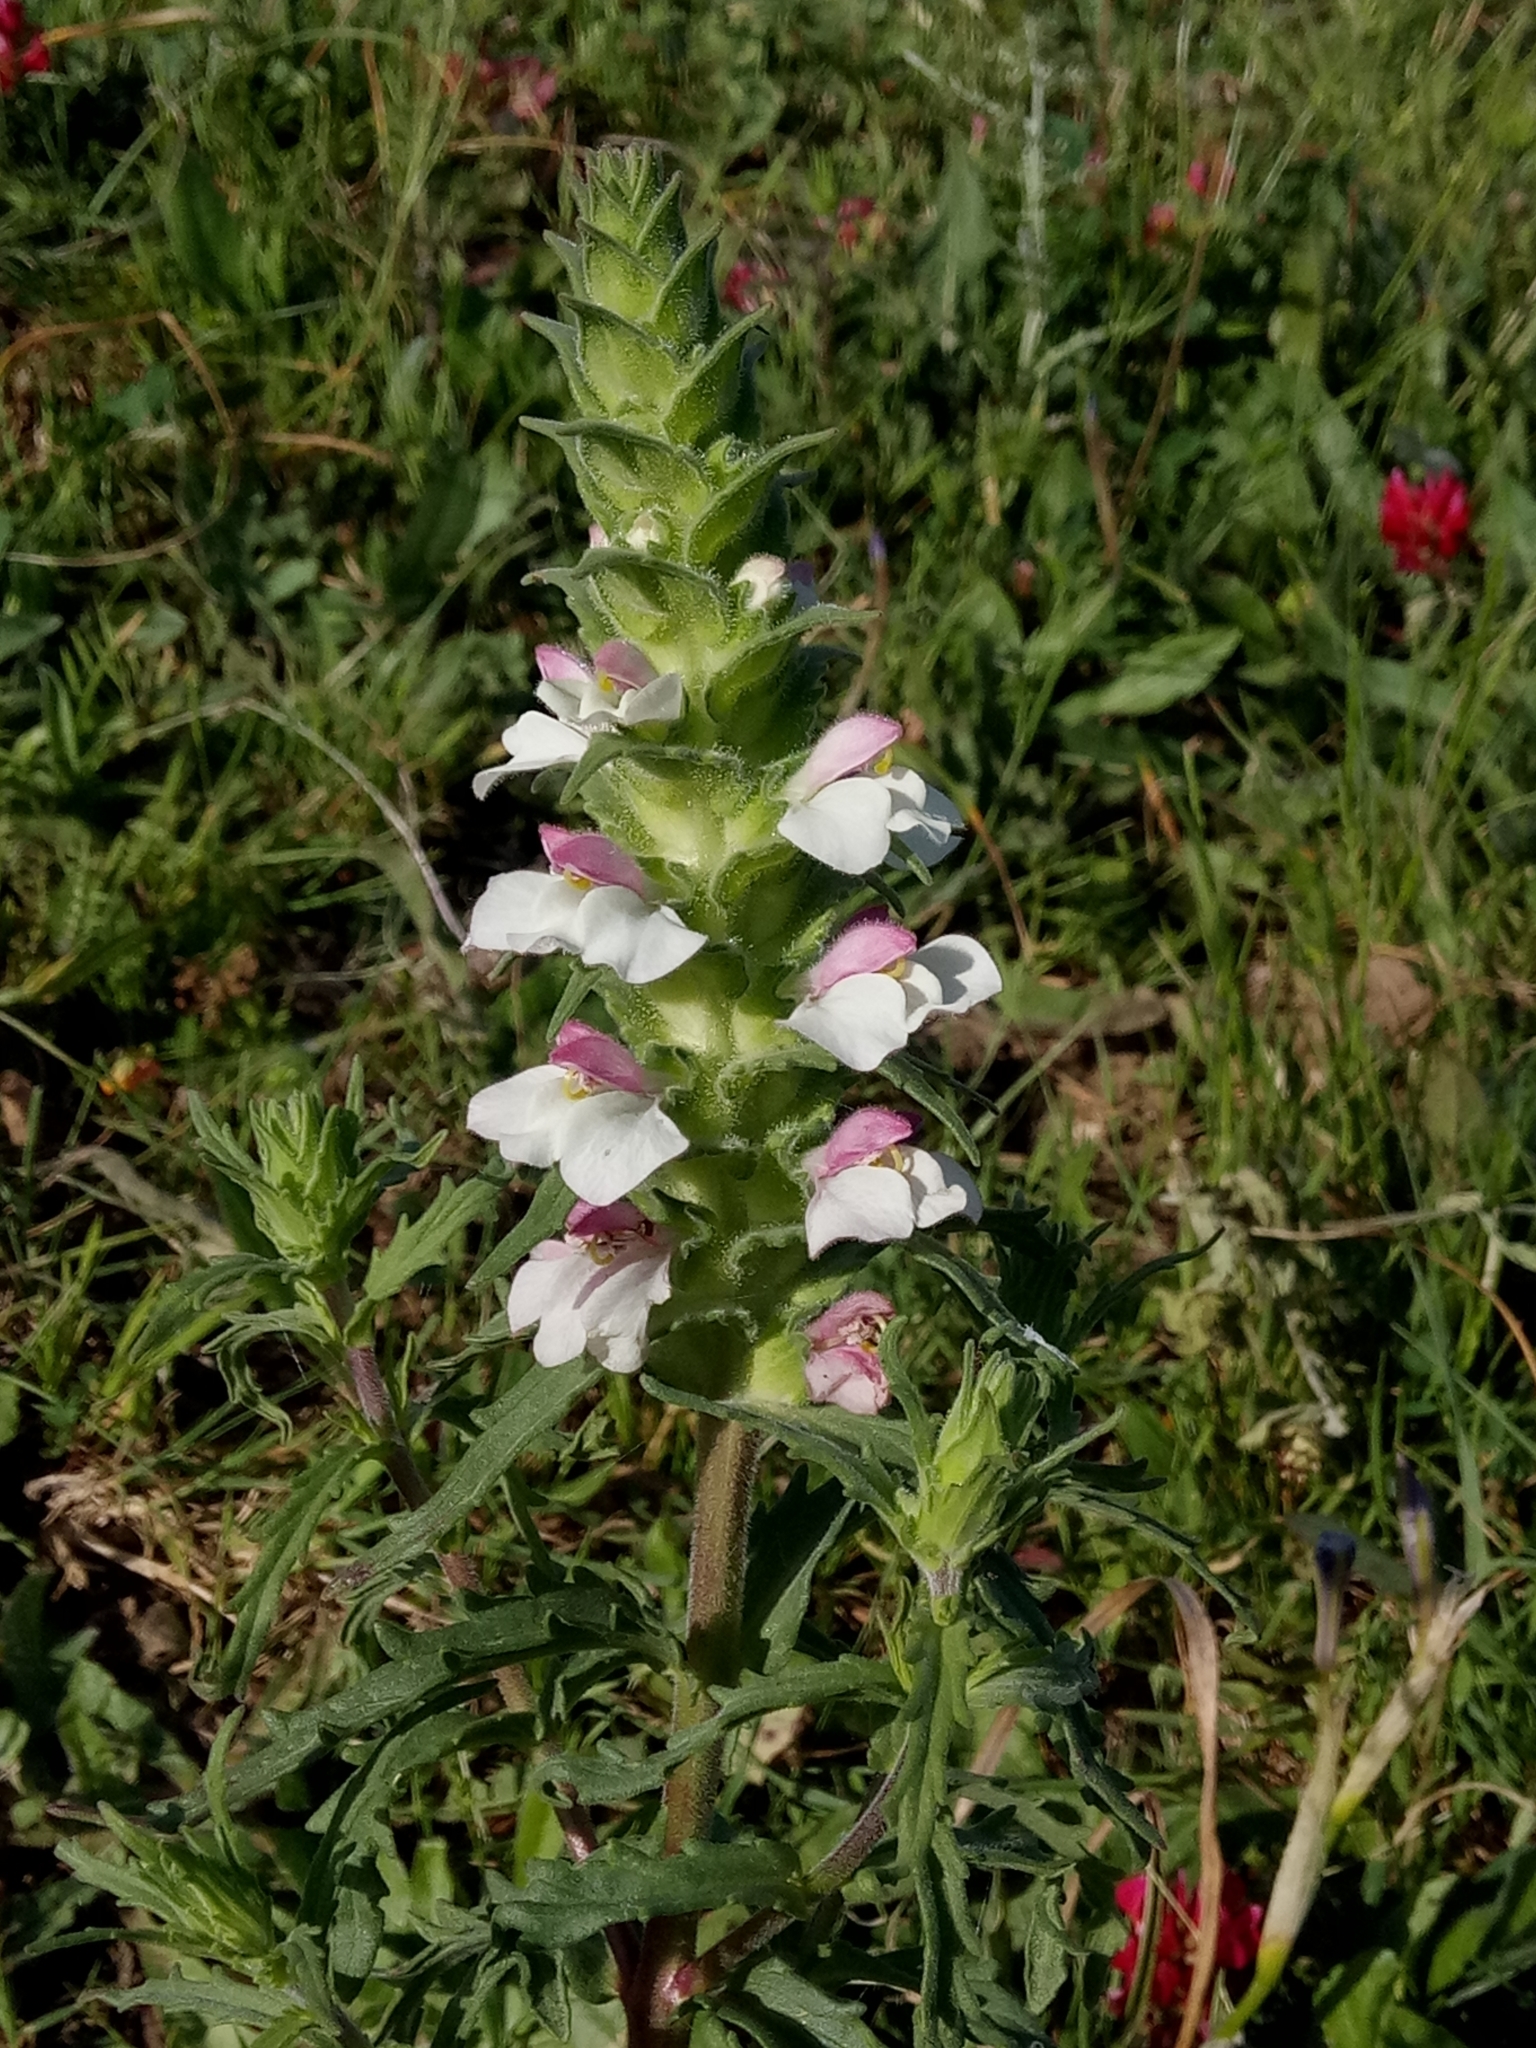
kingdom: Plantae
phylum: Tracheophyta
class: Magnoliopsida
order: Lamiales
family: Orobanchaceae
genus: Bellardia
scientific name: Bellardia trixago
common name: Mediterranean lineseed
